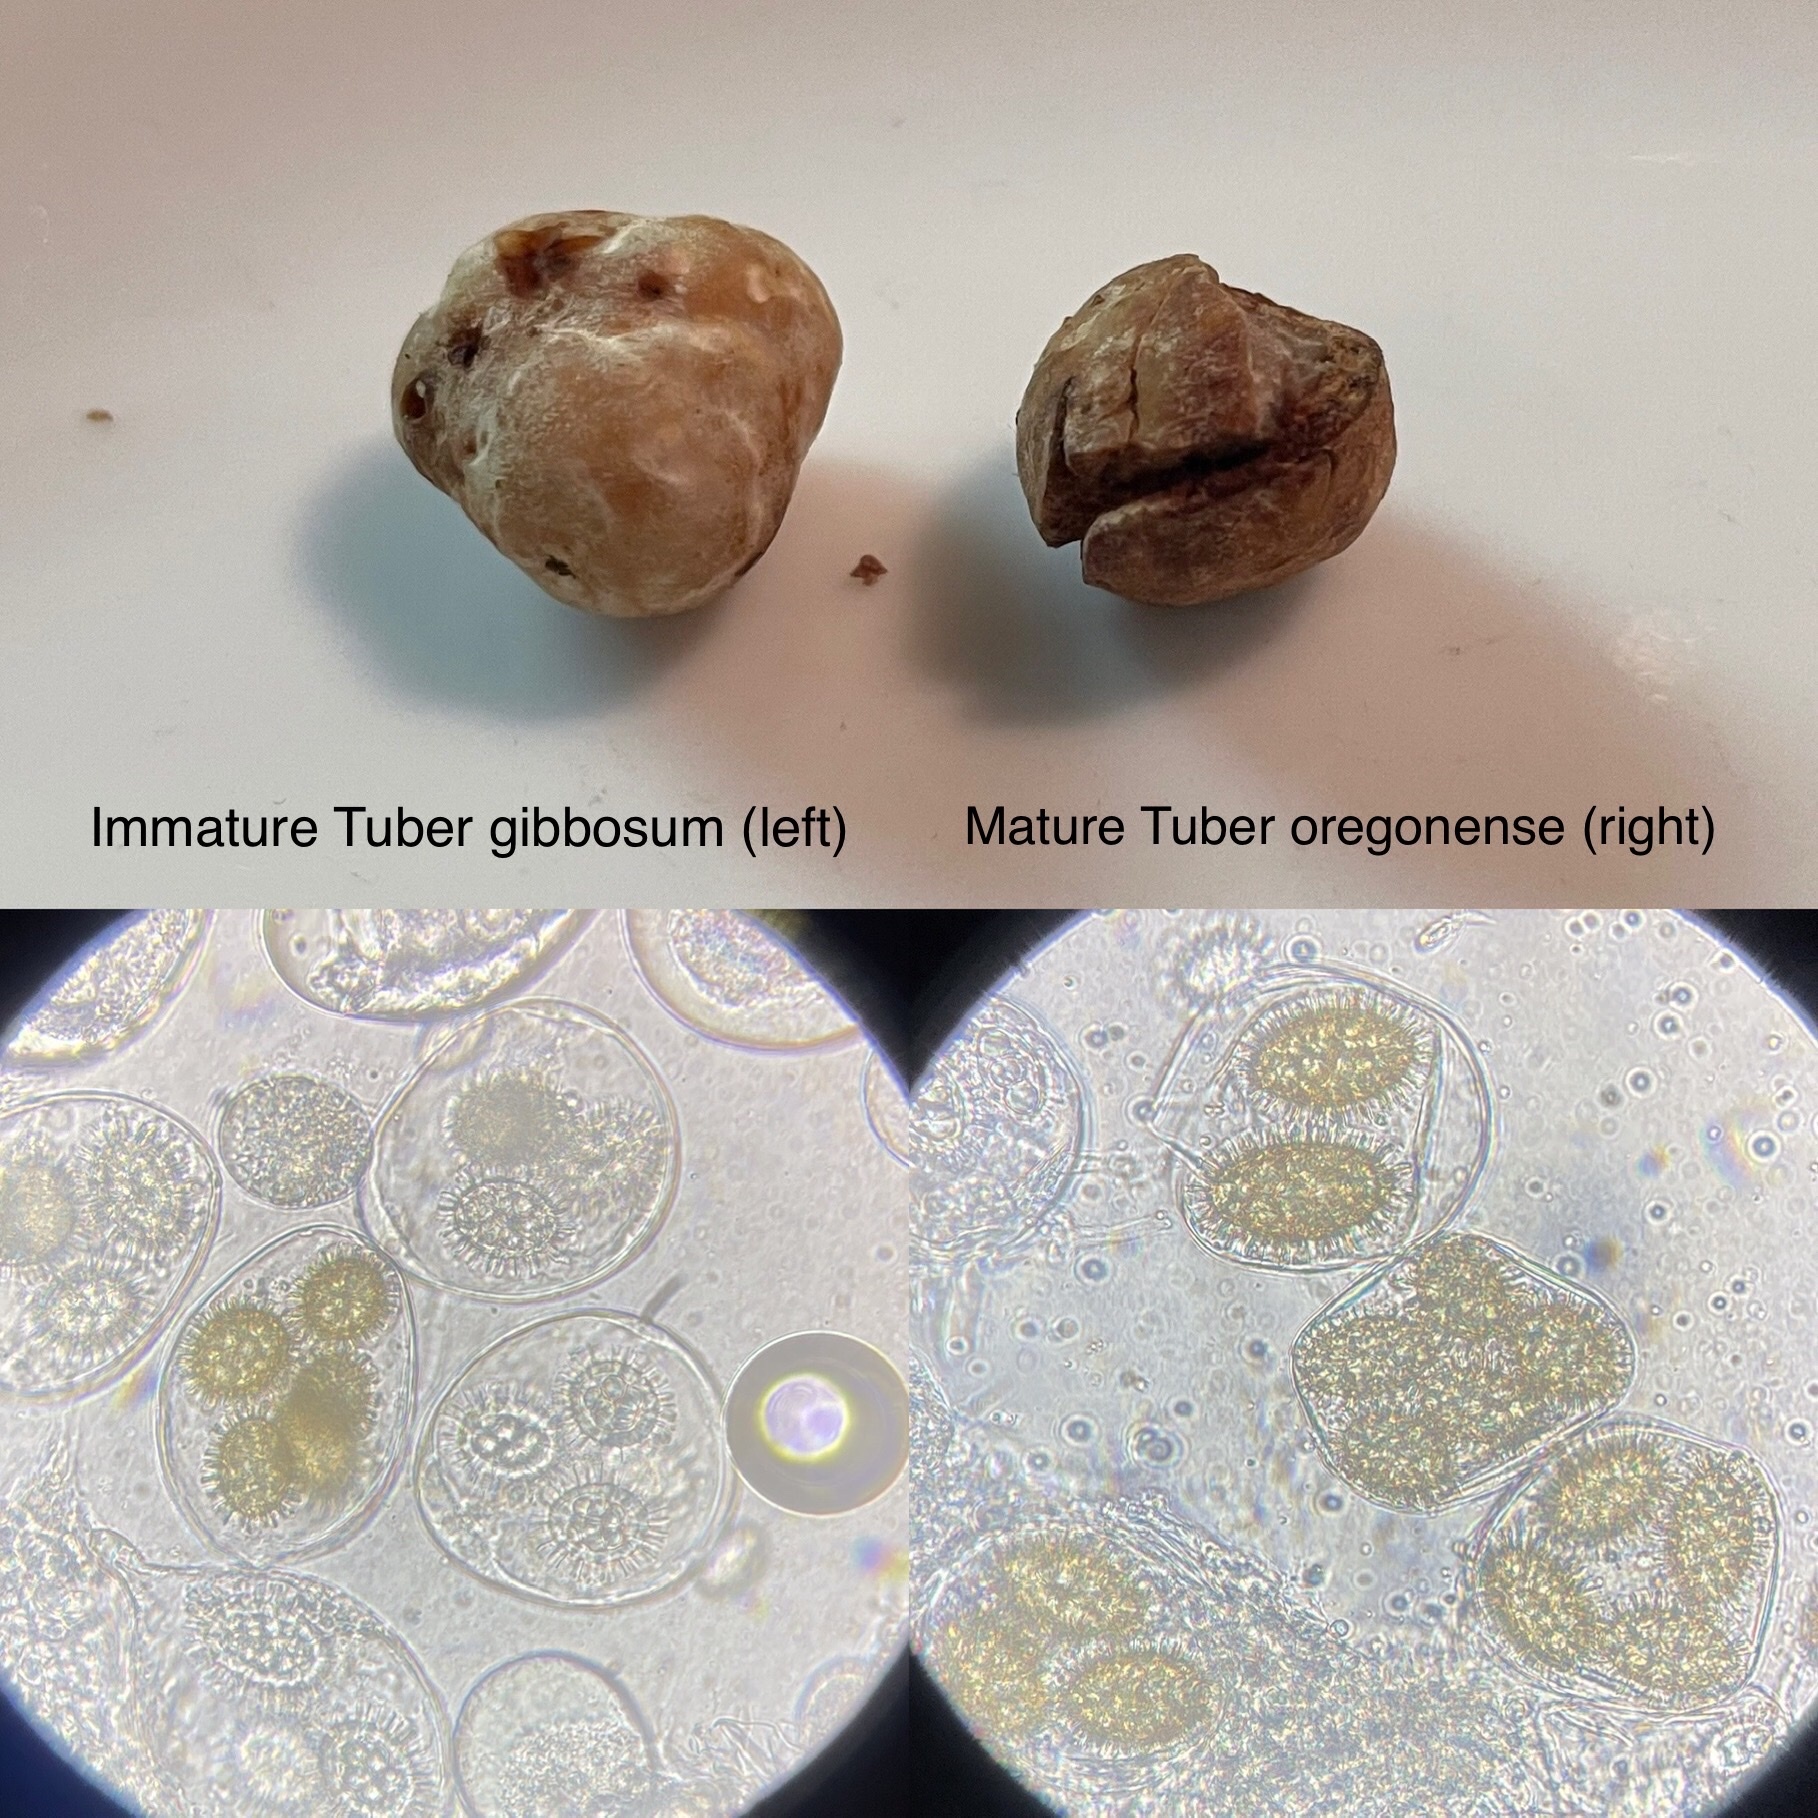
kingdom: Fungi
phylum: Ascomycota
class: Pezizomycetes
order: Pezizales
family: Tuberaceae
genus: Tuber
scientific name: Tuber gibbosum
